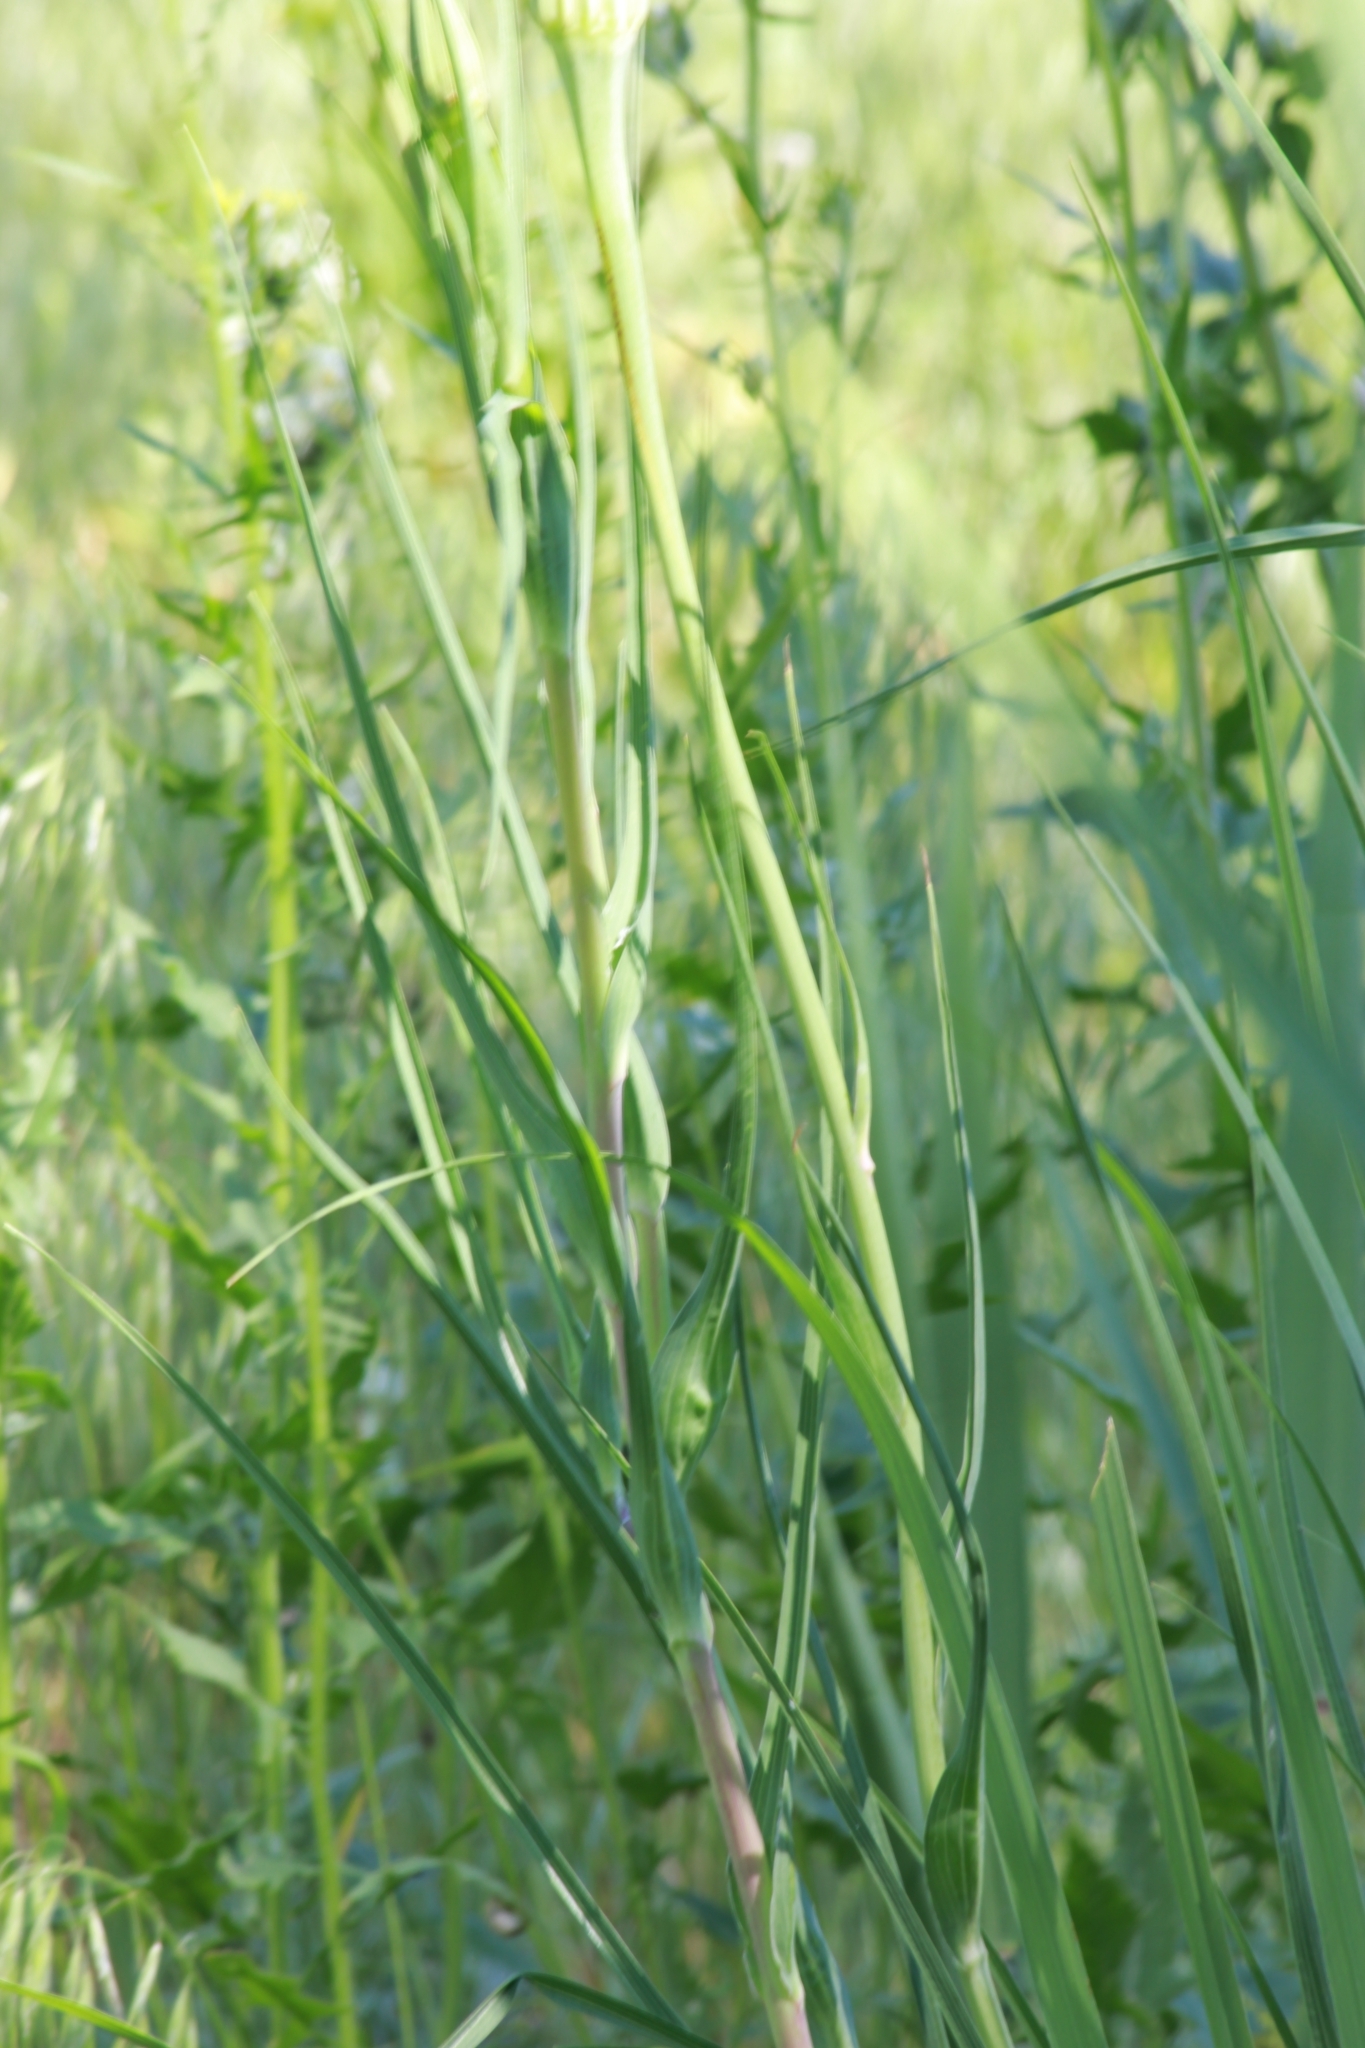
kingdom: Plantae
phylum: Tracheophyta
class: Magnoliopsida
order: Asterales
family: Asteraceae
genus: Tragopogon
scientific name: Tragopogon dubius
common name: Yellow salsify
